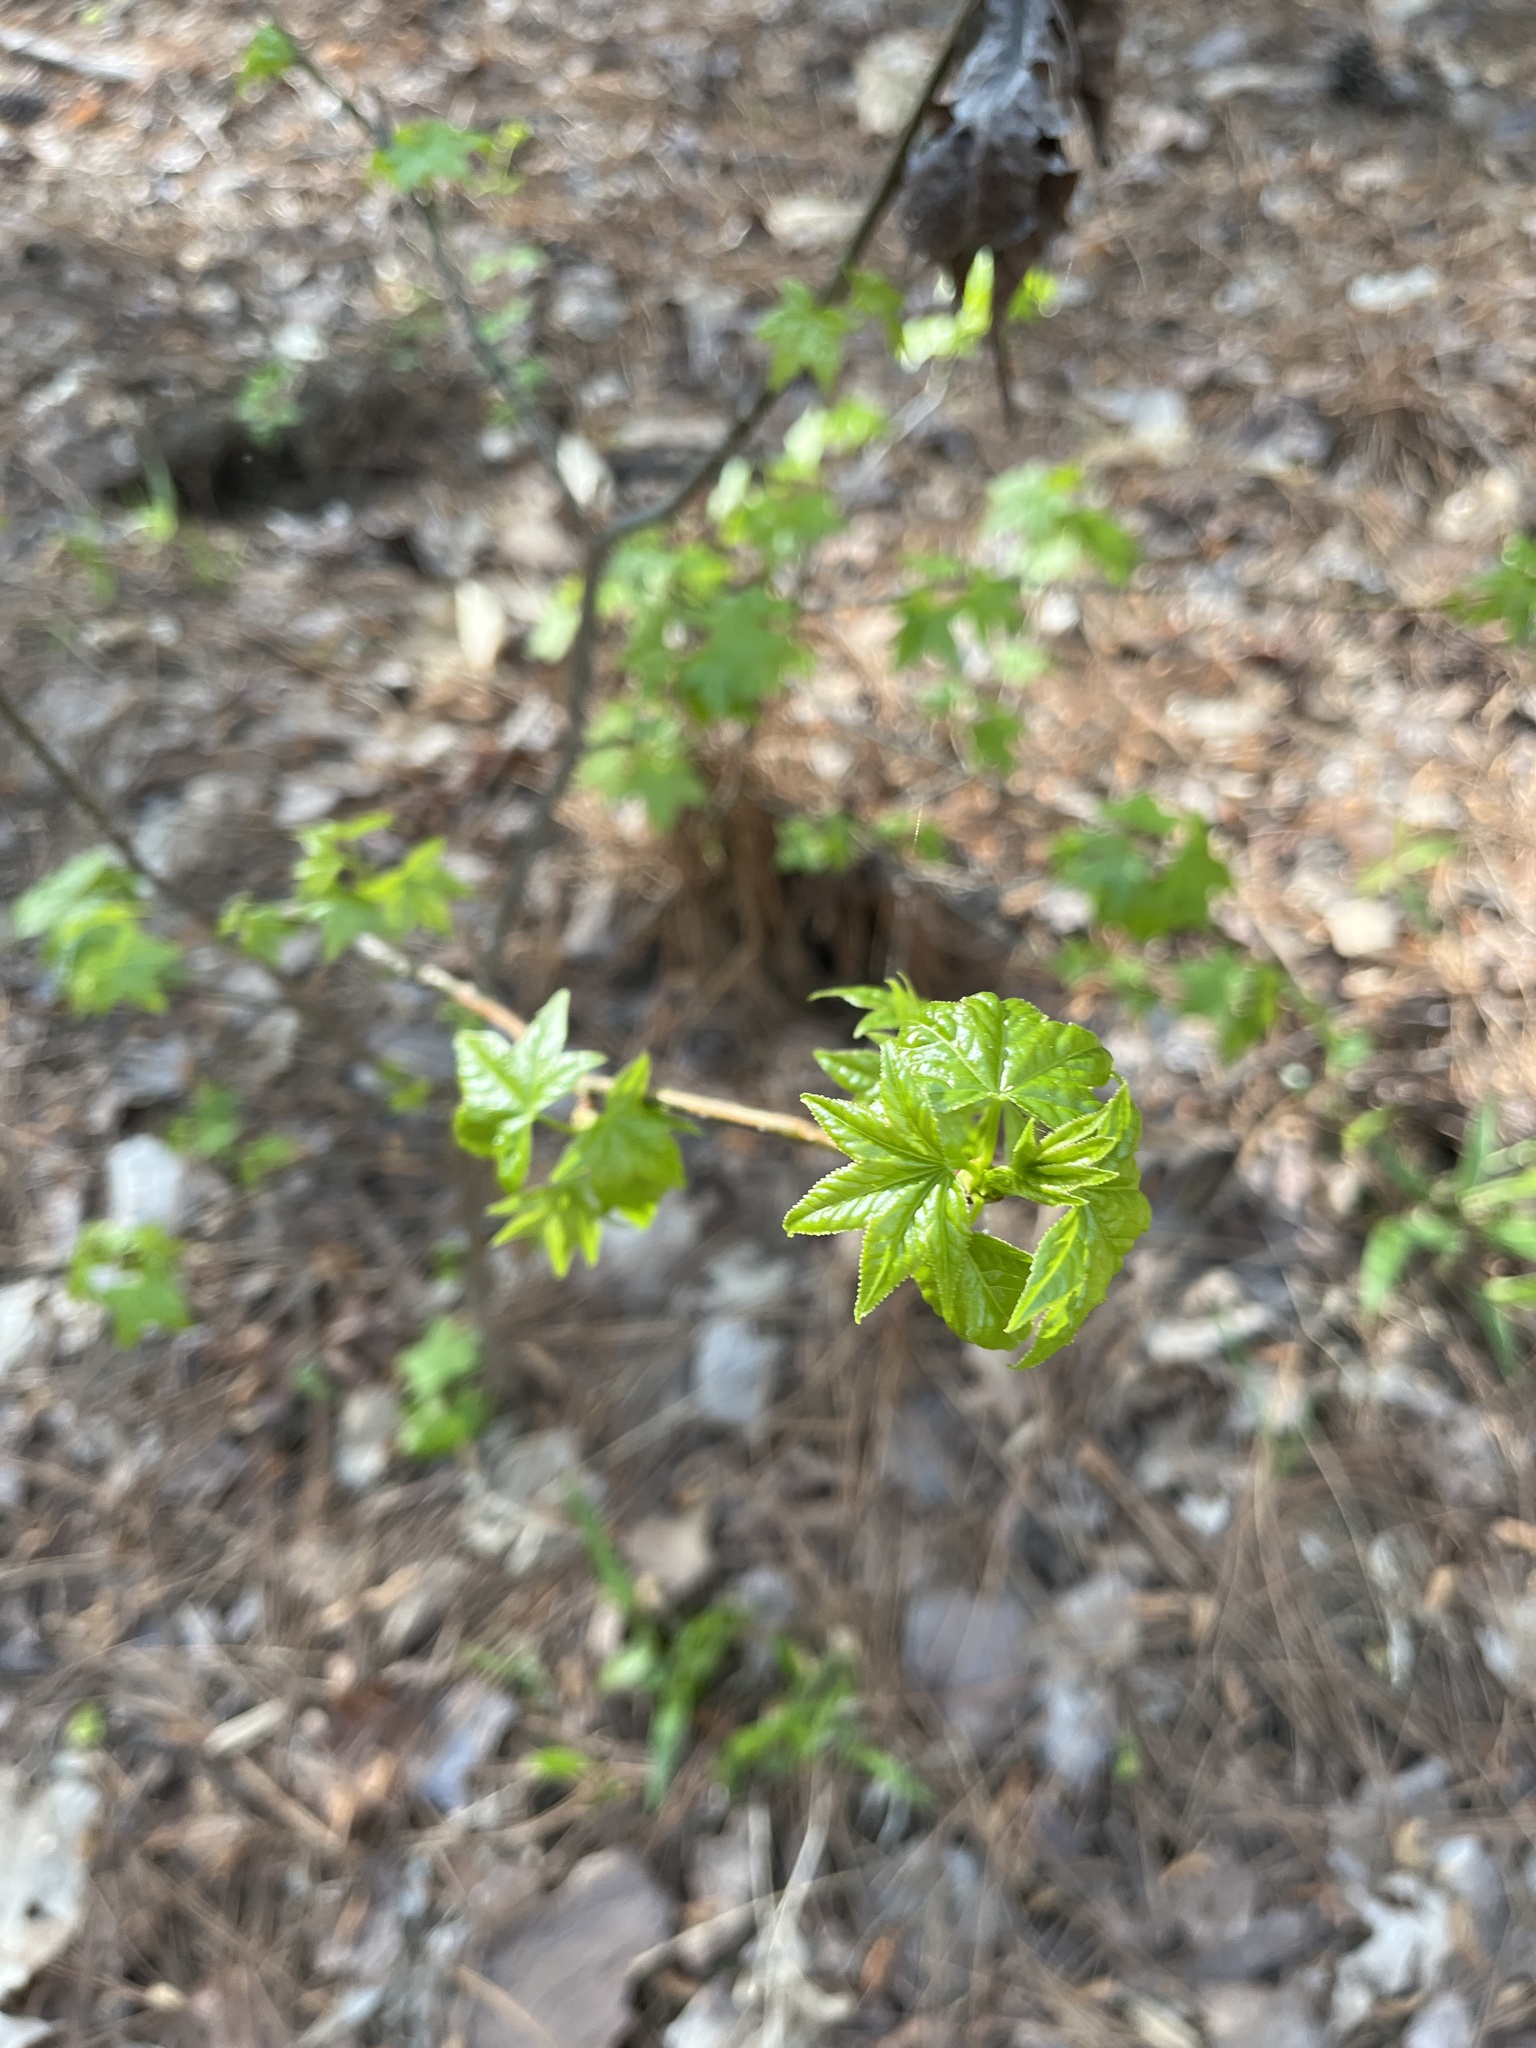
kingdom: Plantae
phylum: Tracheophyta
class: Magnoliopsida
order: Saxifragales
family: Altingiaceae
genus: Liquidambar
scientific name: Liquidambar styraciflua
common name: Sweet gum
